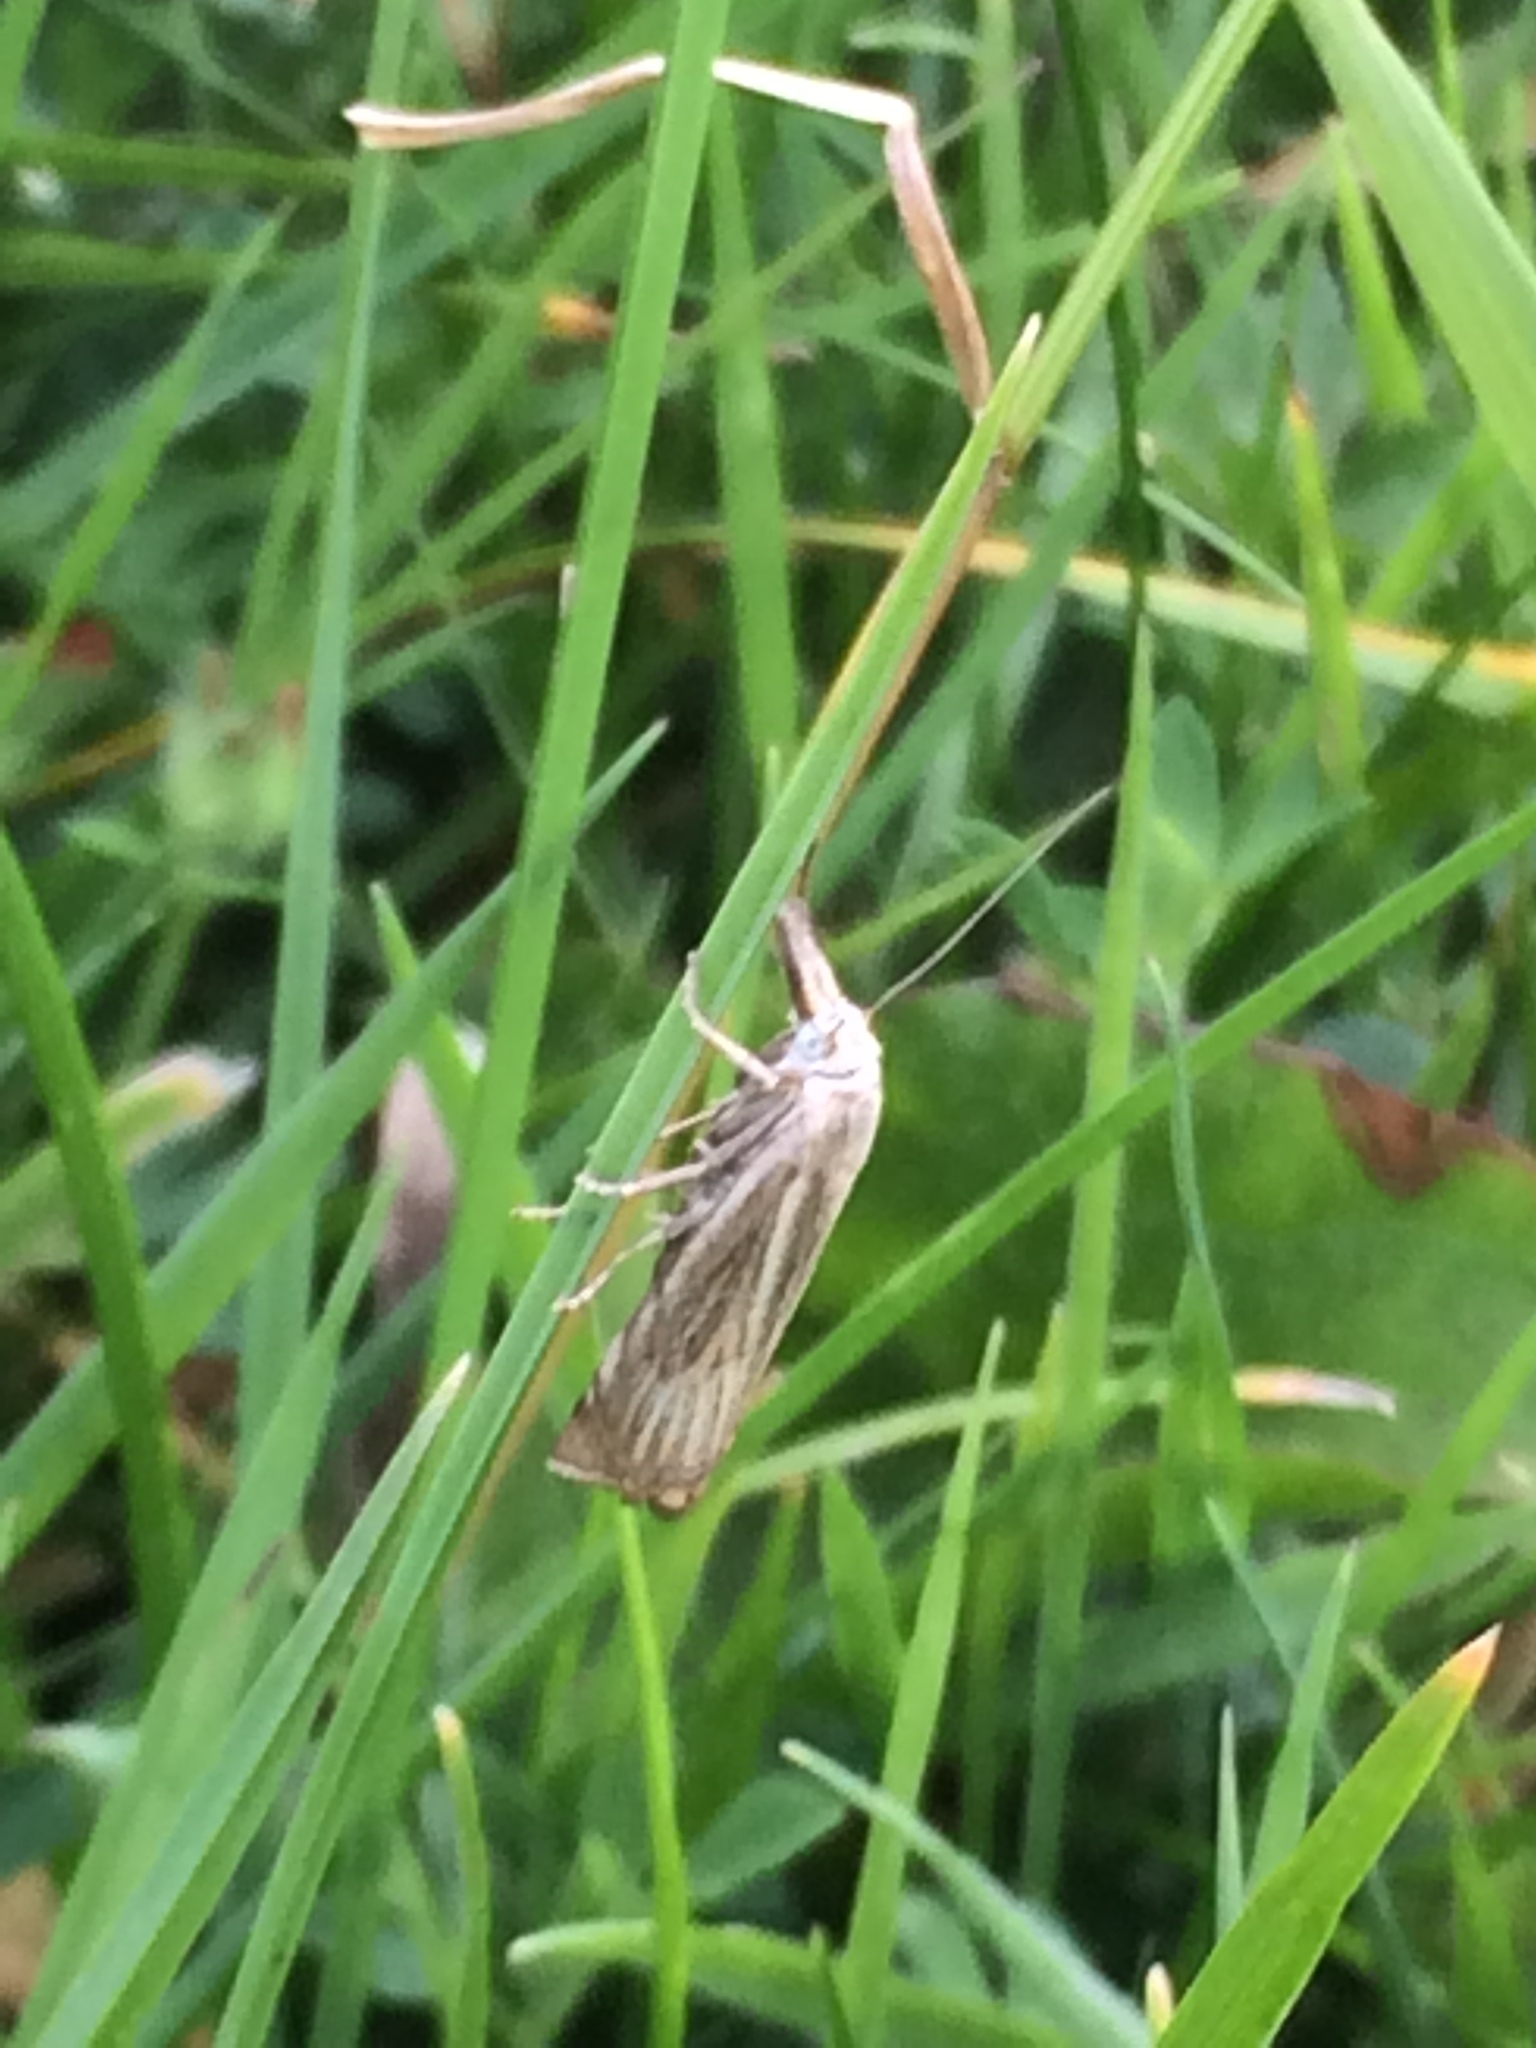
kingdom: Animalia
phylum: Arthropoda
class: Insecta
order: Lepidoptera
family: Crambidae
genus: Chrysoteuchia
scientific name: Chrysoteuchia culmella
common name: Garden grass-veneer
